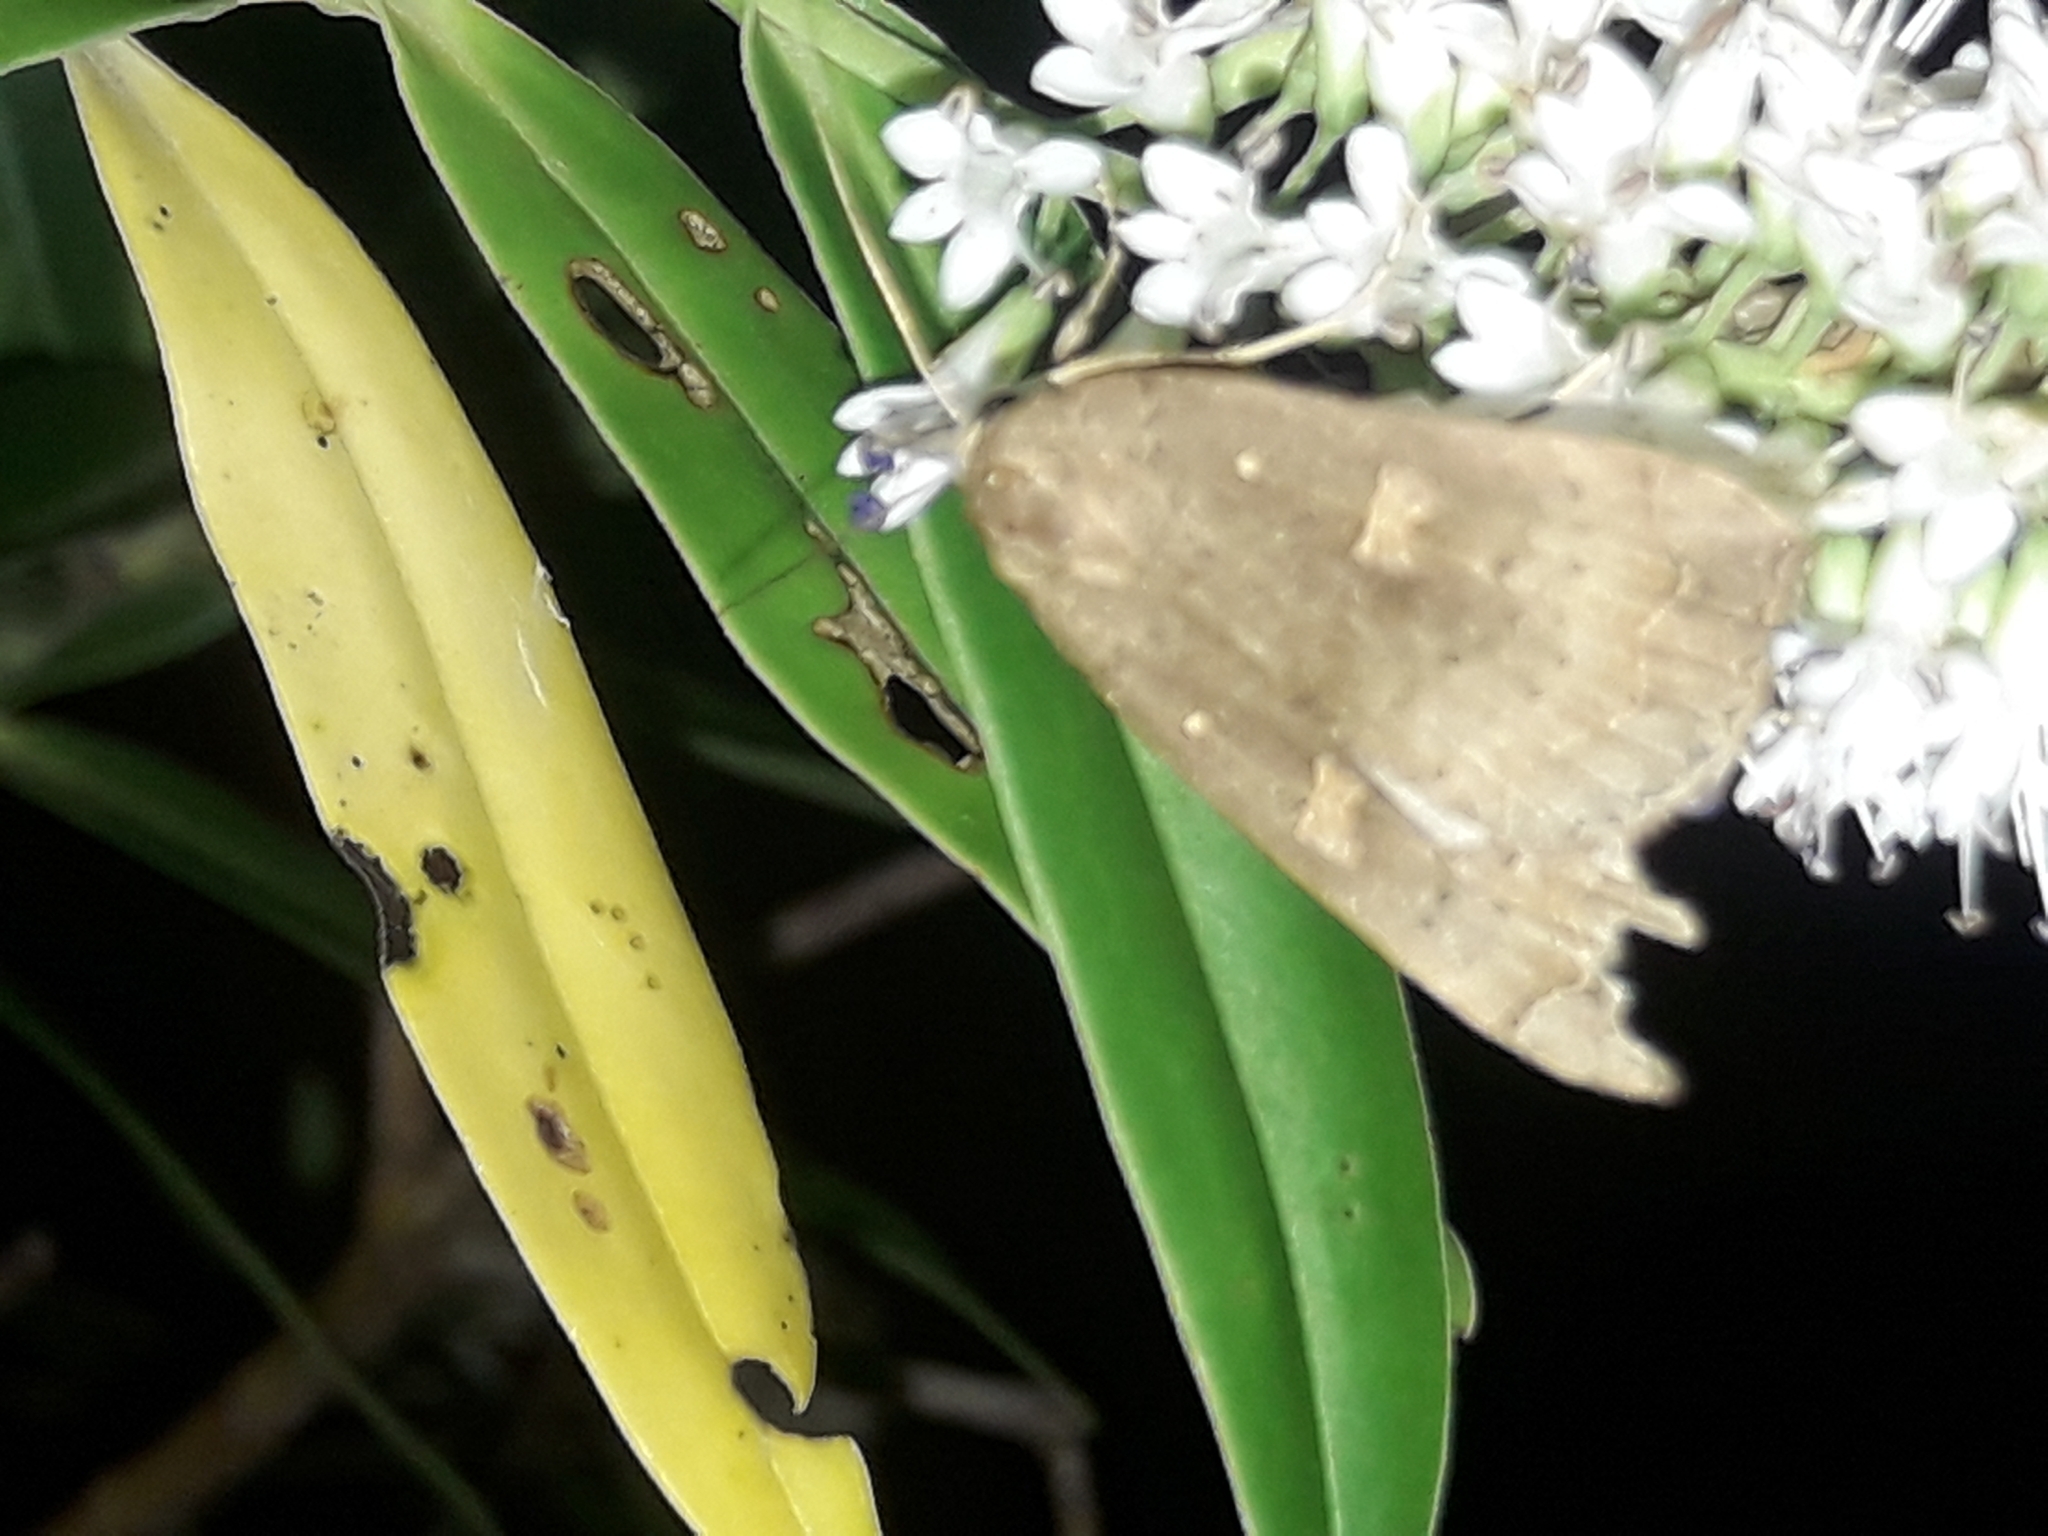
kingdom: Animalia
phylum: Arthropoda
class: Insecta
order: Lepidoptera
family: Erebidae
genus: Rhapsa
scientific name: Rhapsa scotosialis
